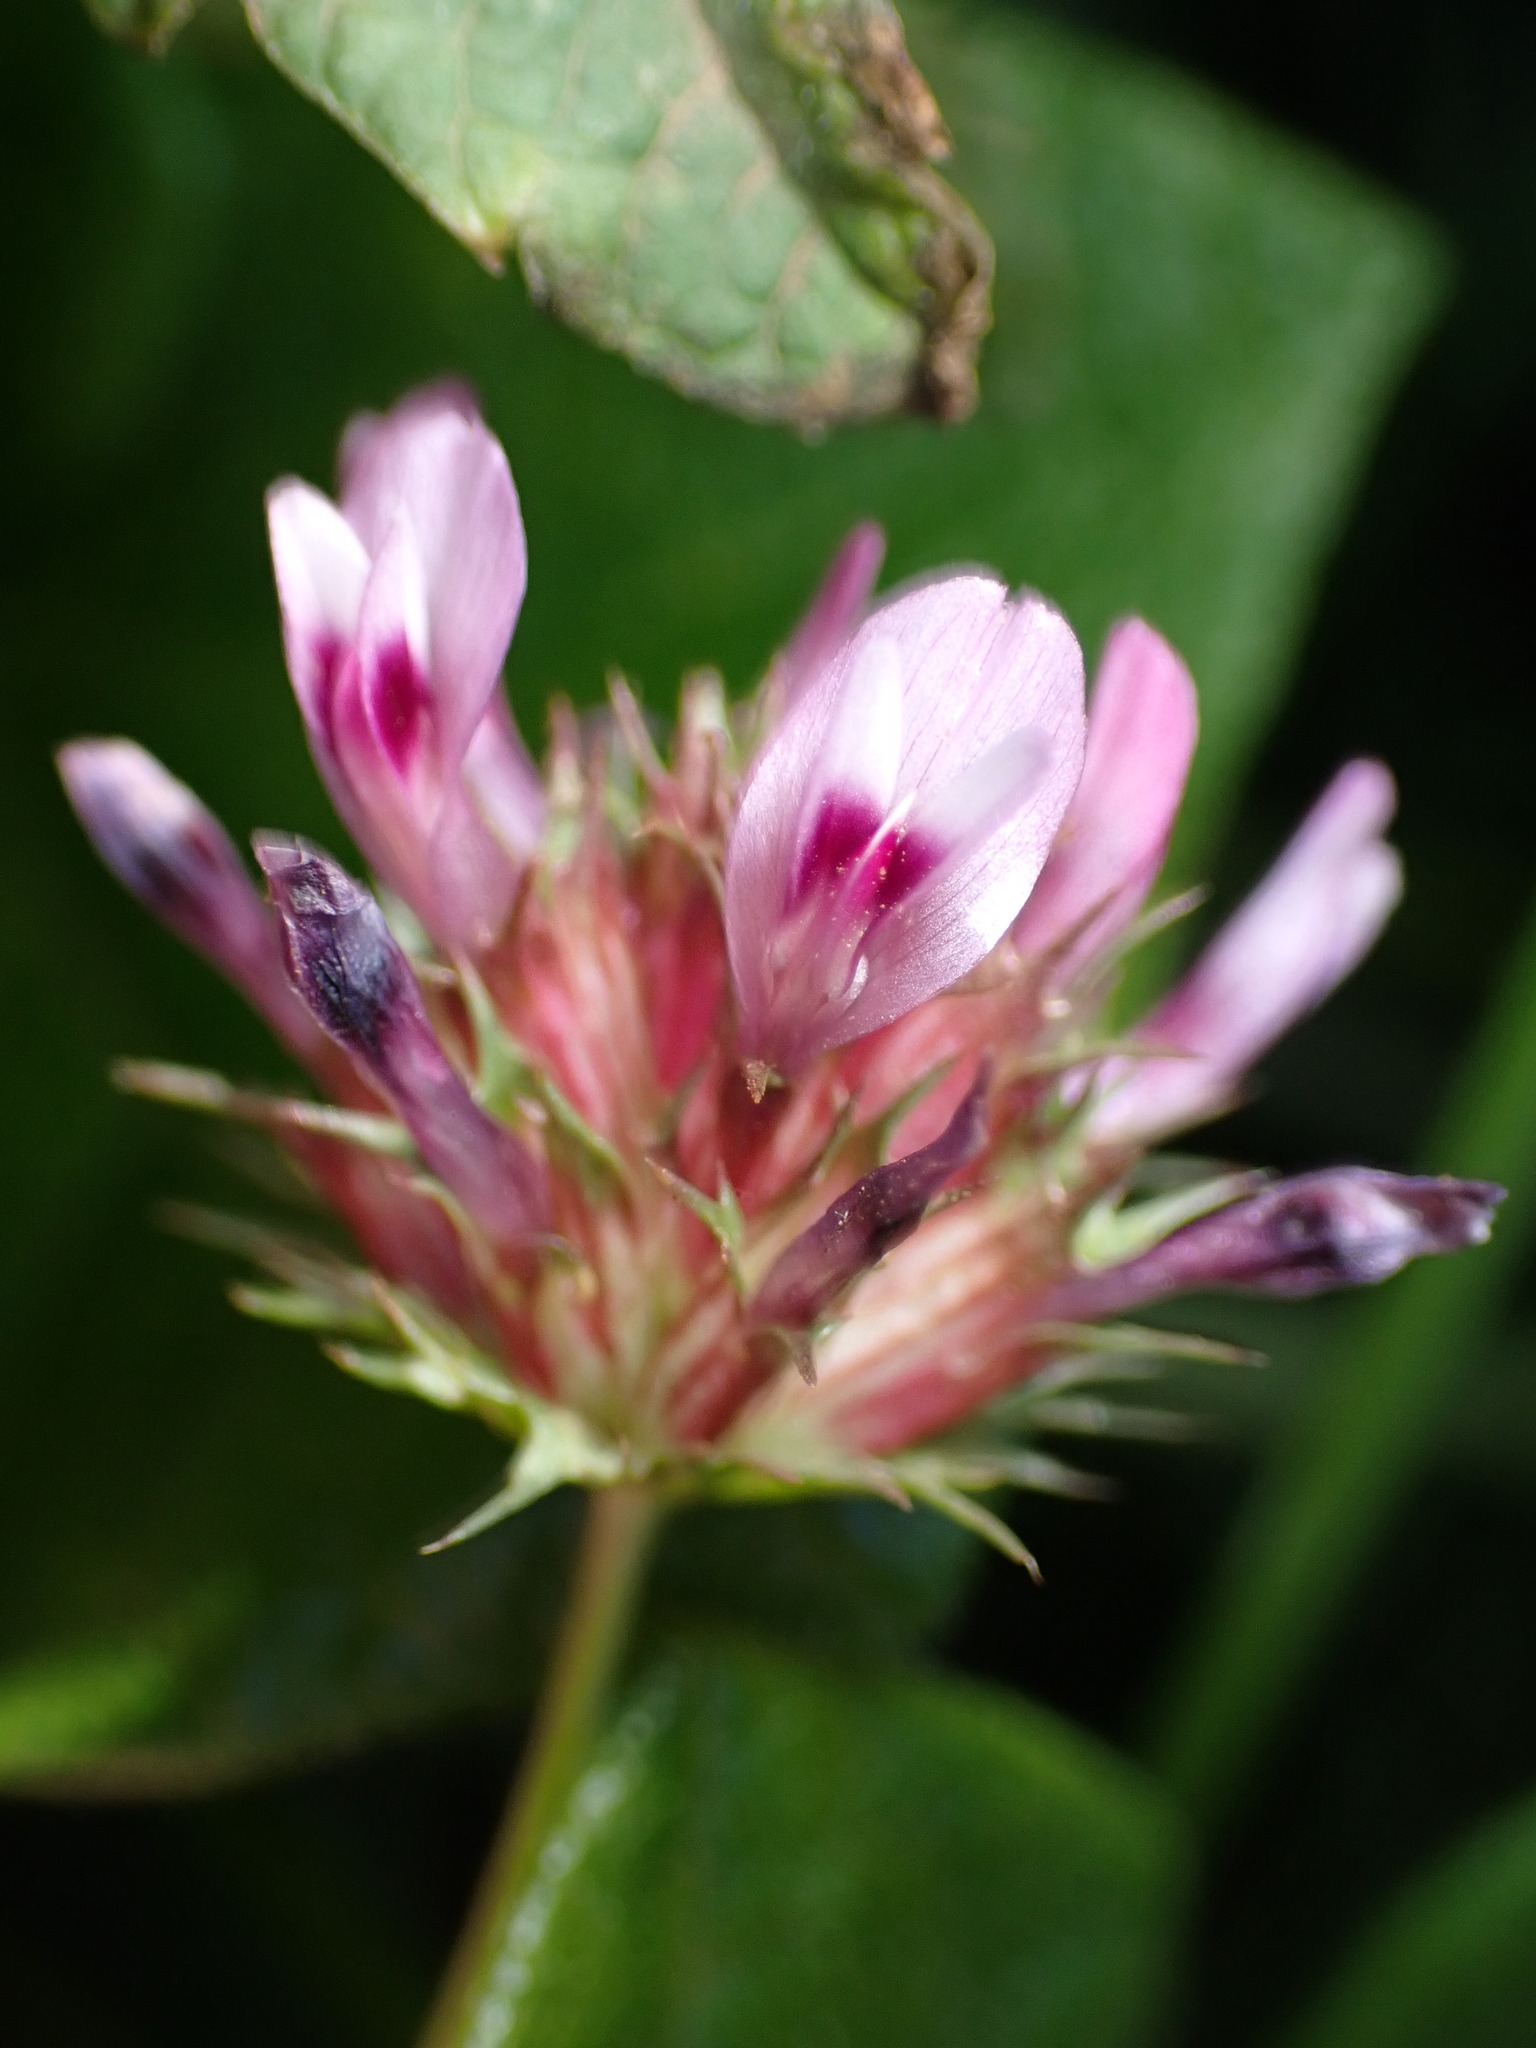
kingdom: Plantae
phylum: Tracheophyta
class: Magnoliopsida
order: Fabales
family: Fabaceae
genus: Trifolium
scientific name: Trifolium willdenovii
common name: Tomcat clover
